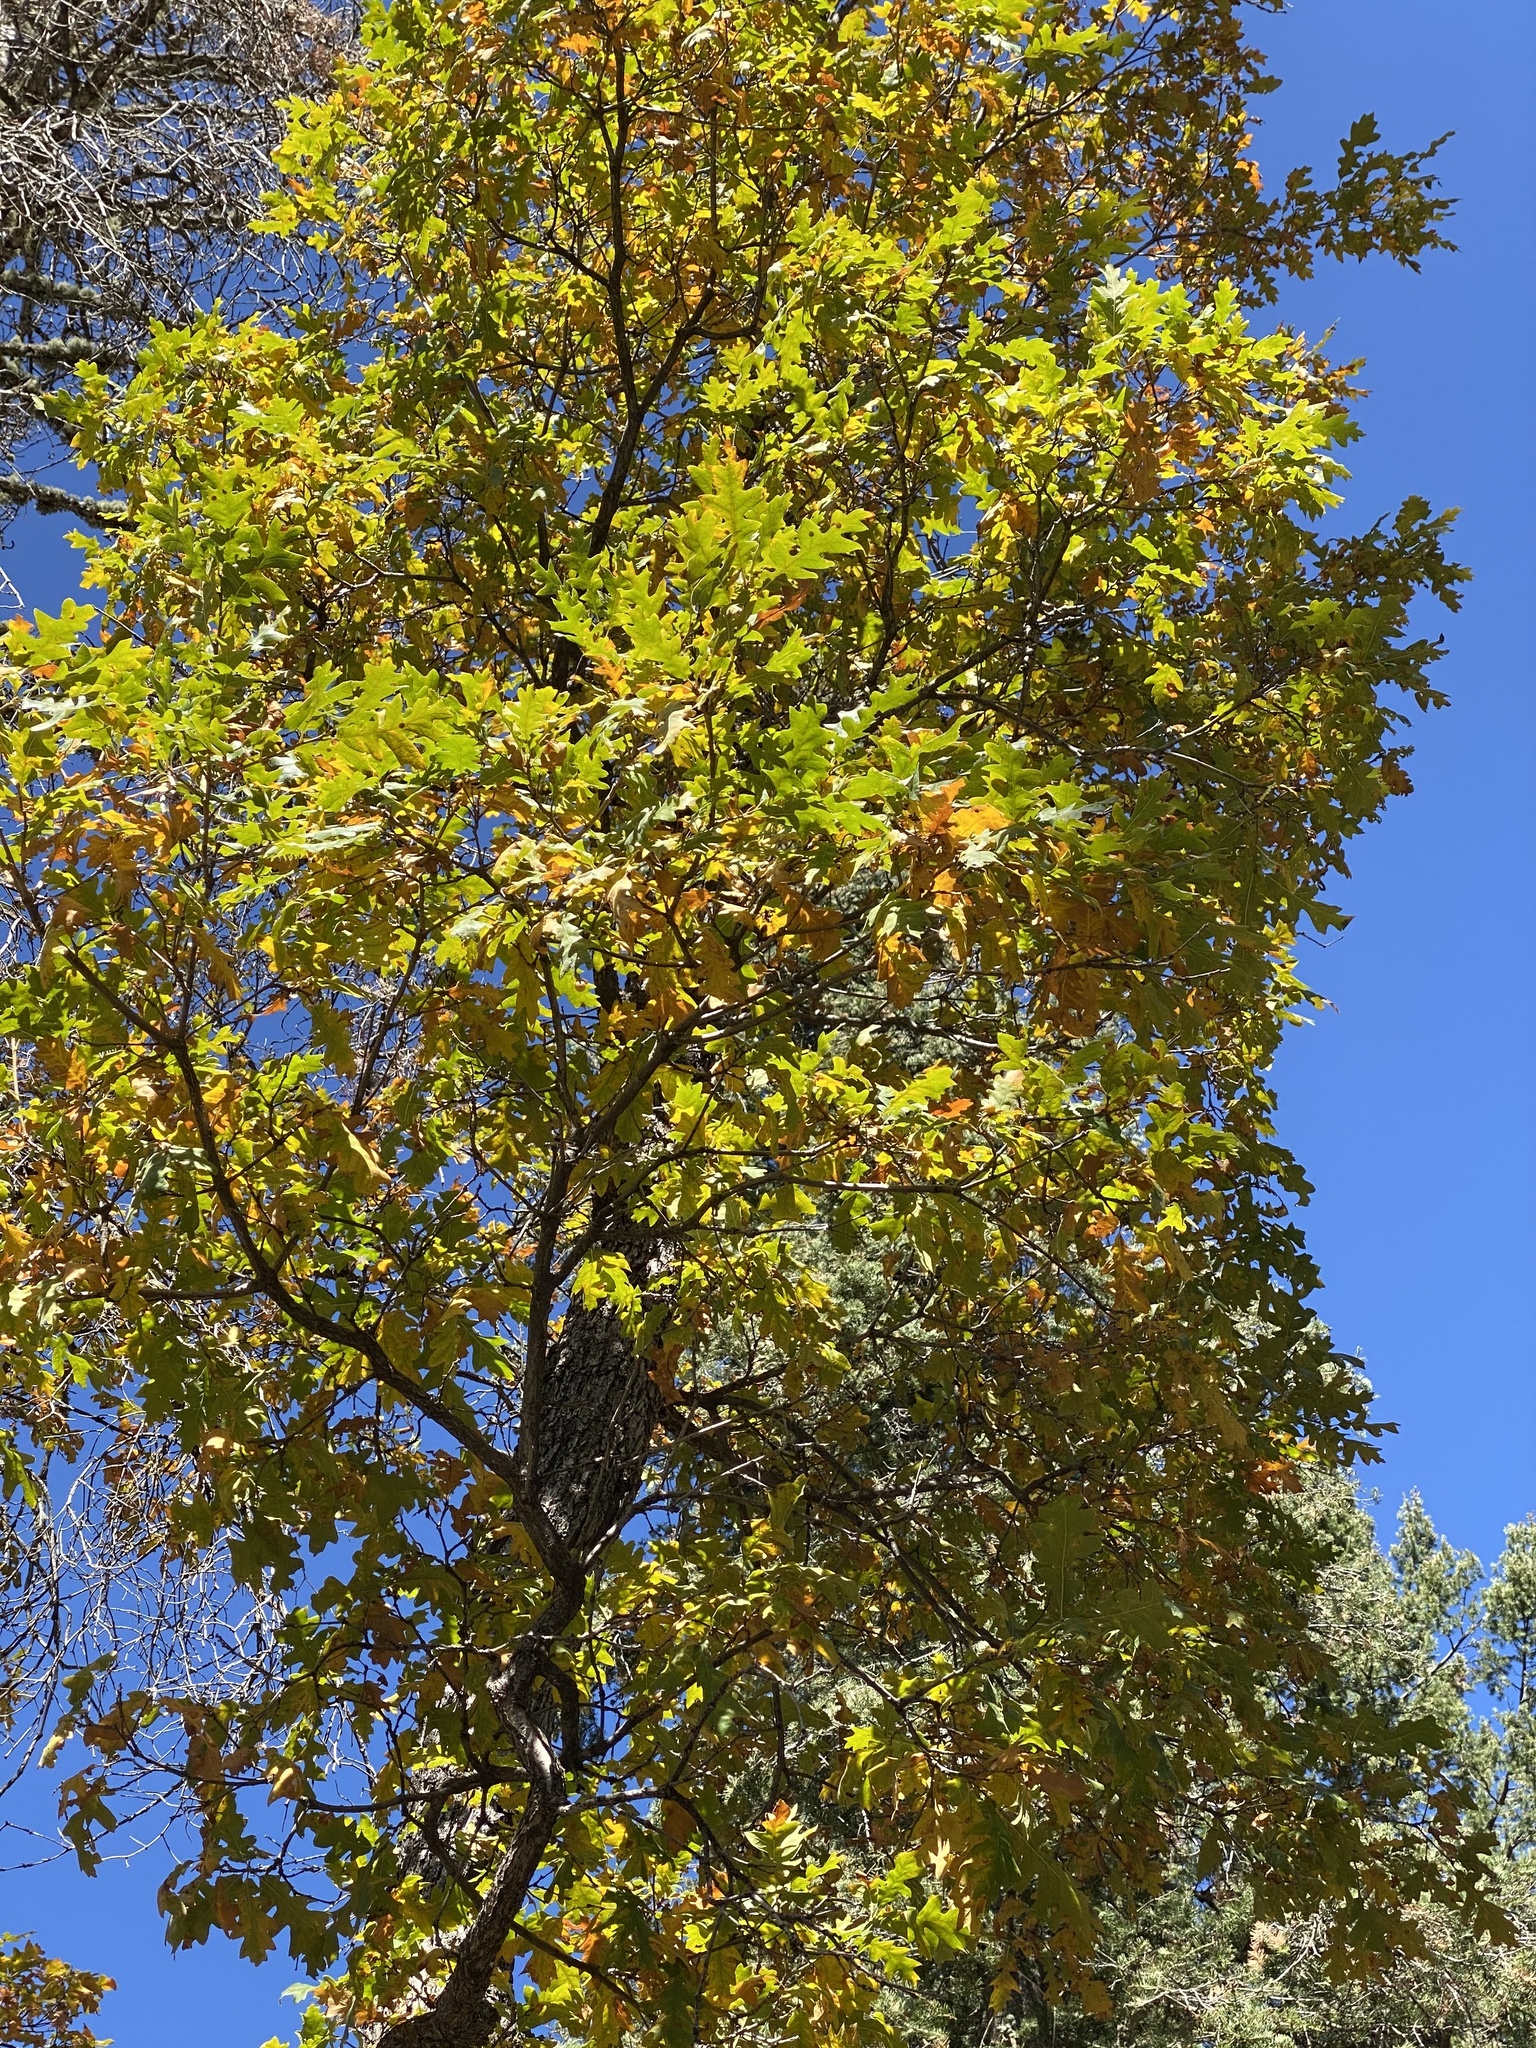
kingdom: Plantae
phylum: Tracheophyta
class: Magnoliopsida
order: Fagales
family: Fagaceae
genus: Quercus
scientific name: Quercus gambelii
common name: Gambel oak
